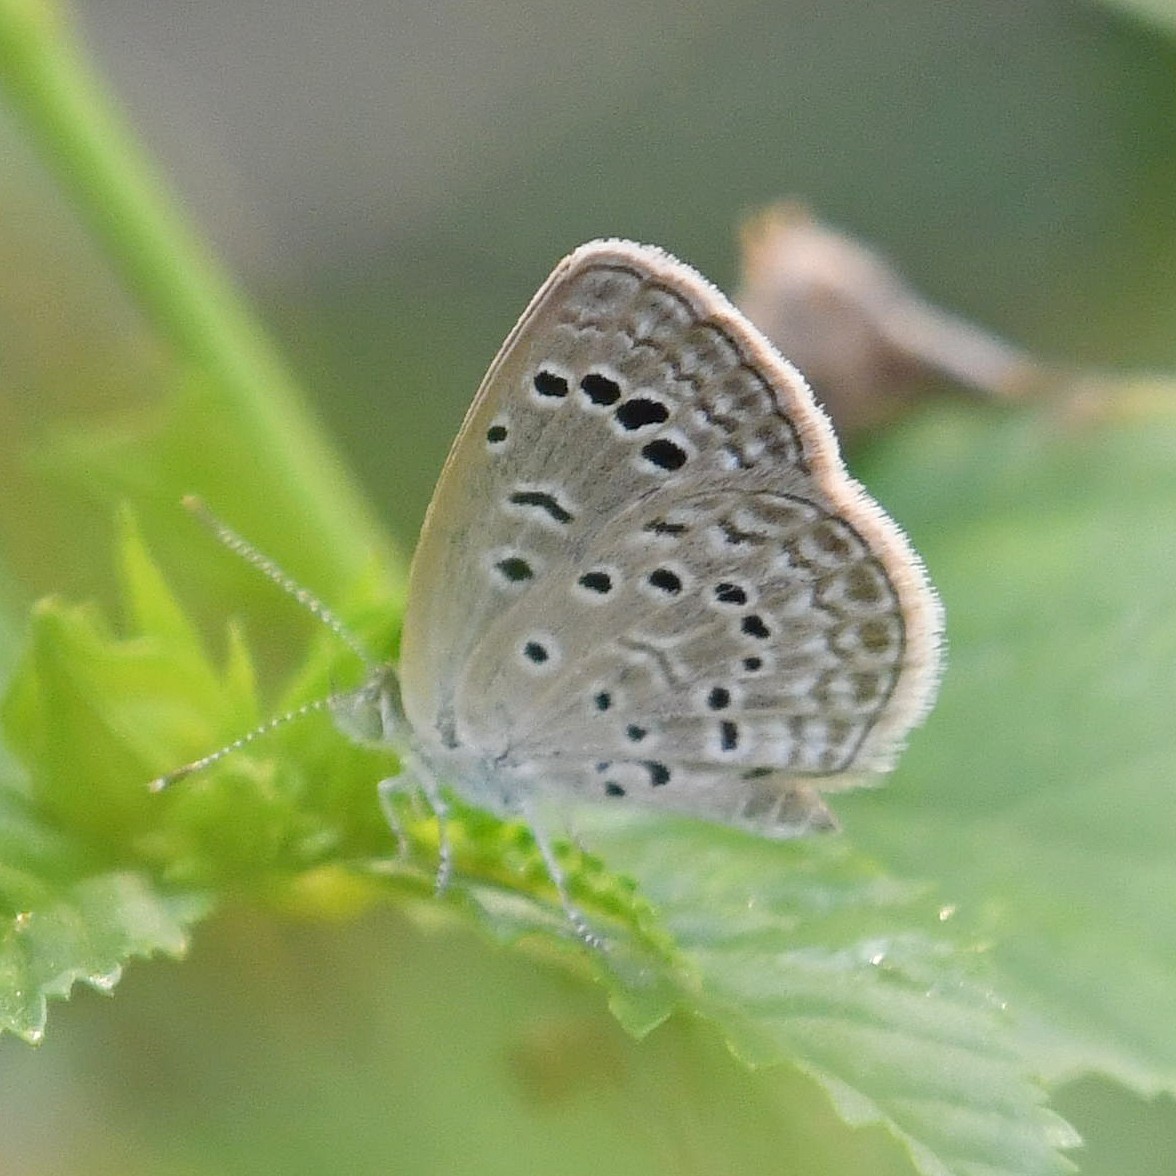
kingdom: Animalia
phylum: Arthropoda
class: Insecta
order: Lepidoptera
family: Lycaenidae
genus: Zizeeria
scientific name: Zizeeria karsandra
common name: Dark grass blue
